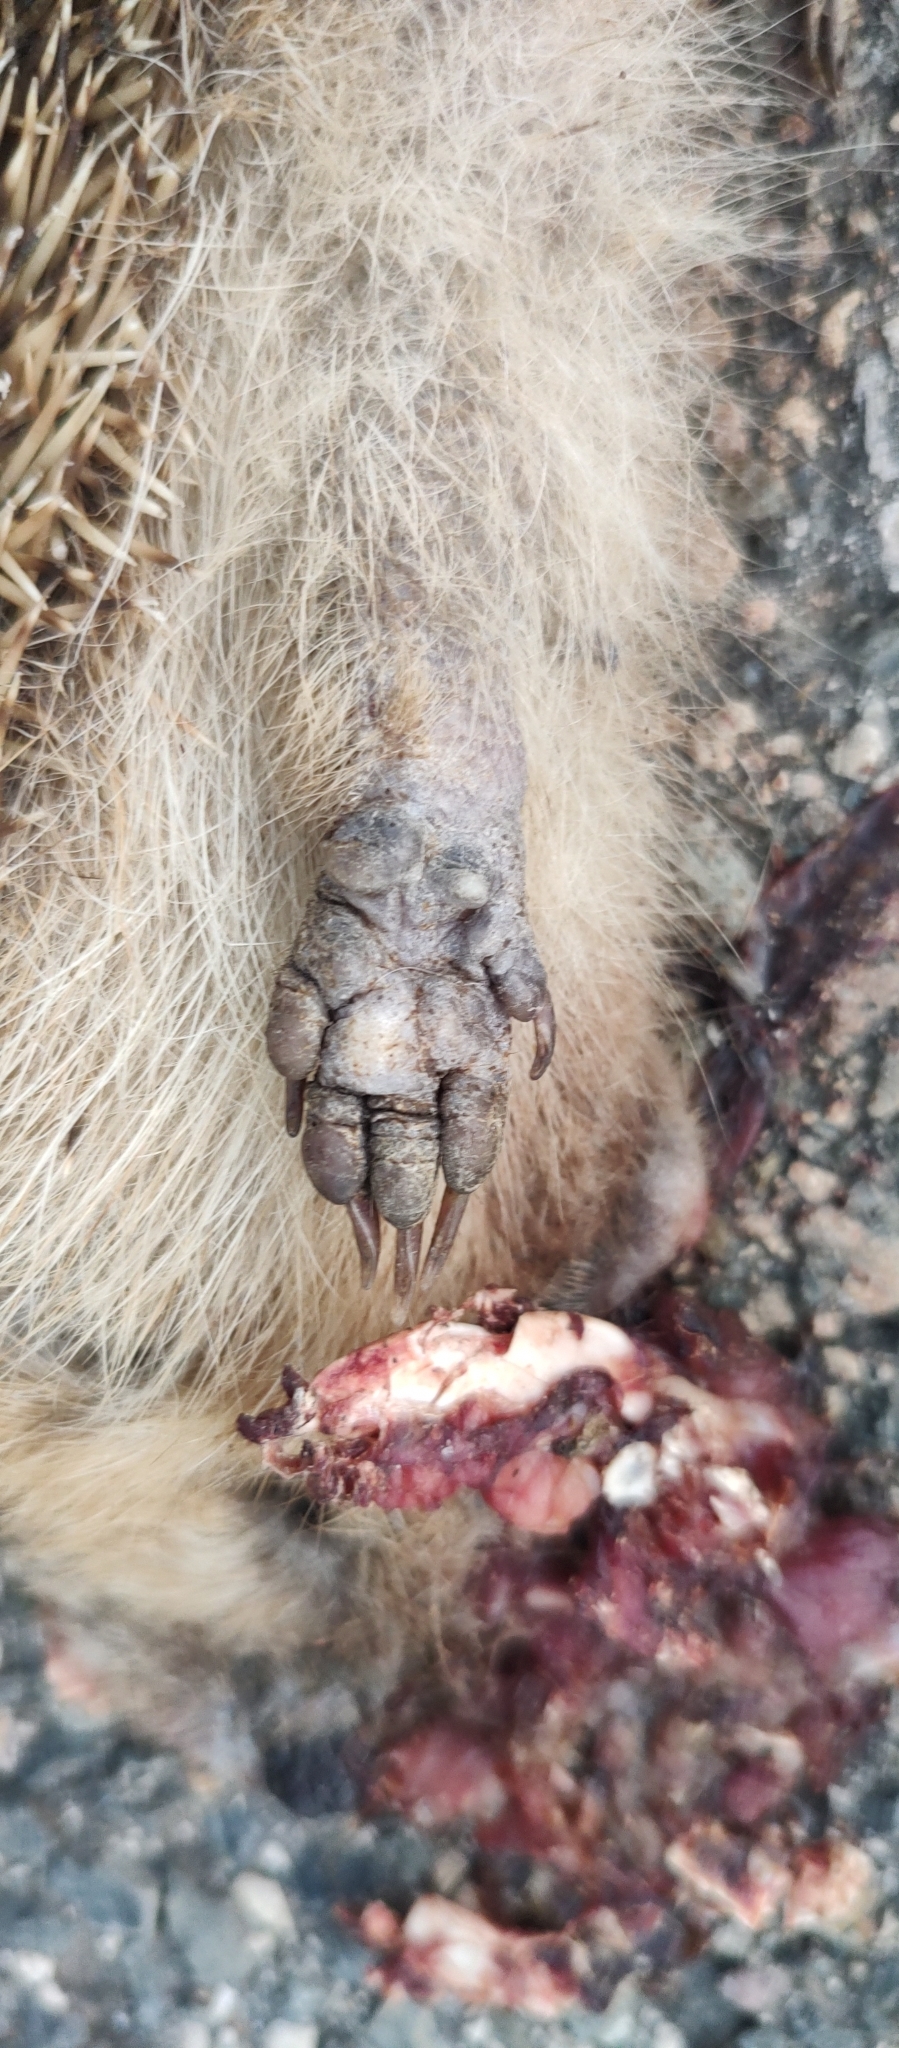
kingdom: Animalia
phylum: Chordata
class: Mammalia
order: Erinaceomorpha
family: Erinaceidae
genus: Erinaceus
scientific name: Erinaceus europaeus
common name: West european hedgehog
